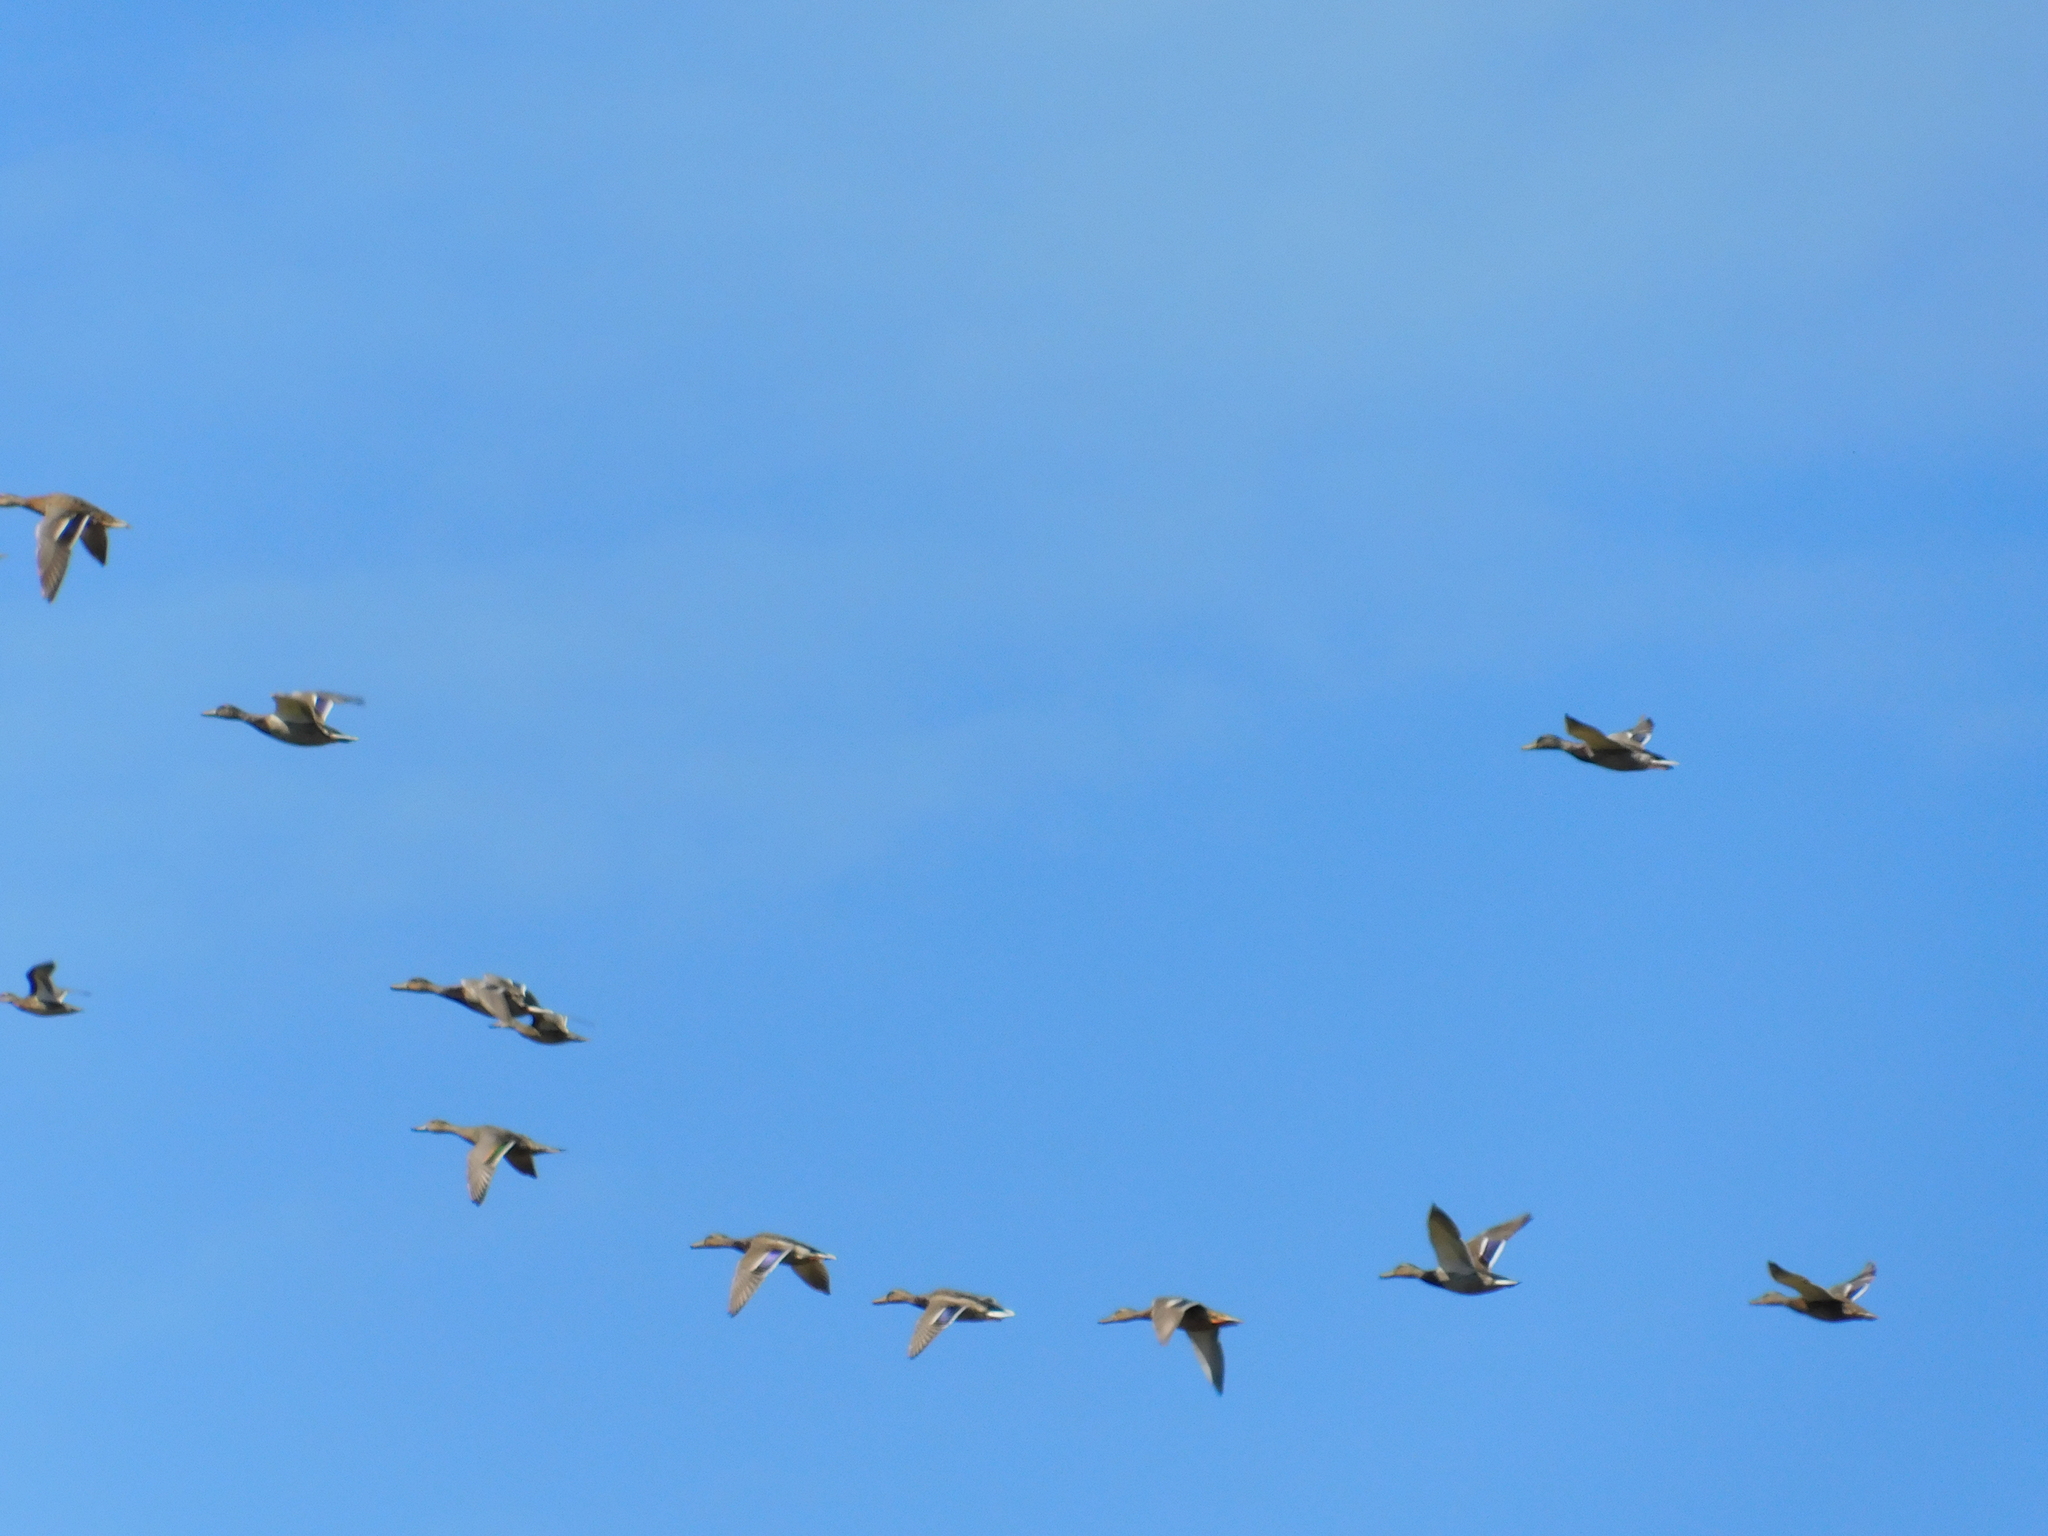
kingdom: Animalia
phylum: Chordata
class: Aves
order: Anseriformes
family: Anatidae
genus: Anas
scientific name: Anas platyrhynchos
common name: Mallard
